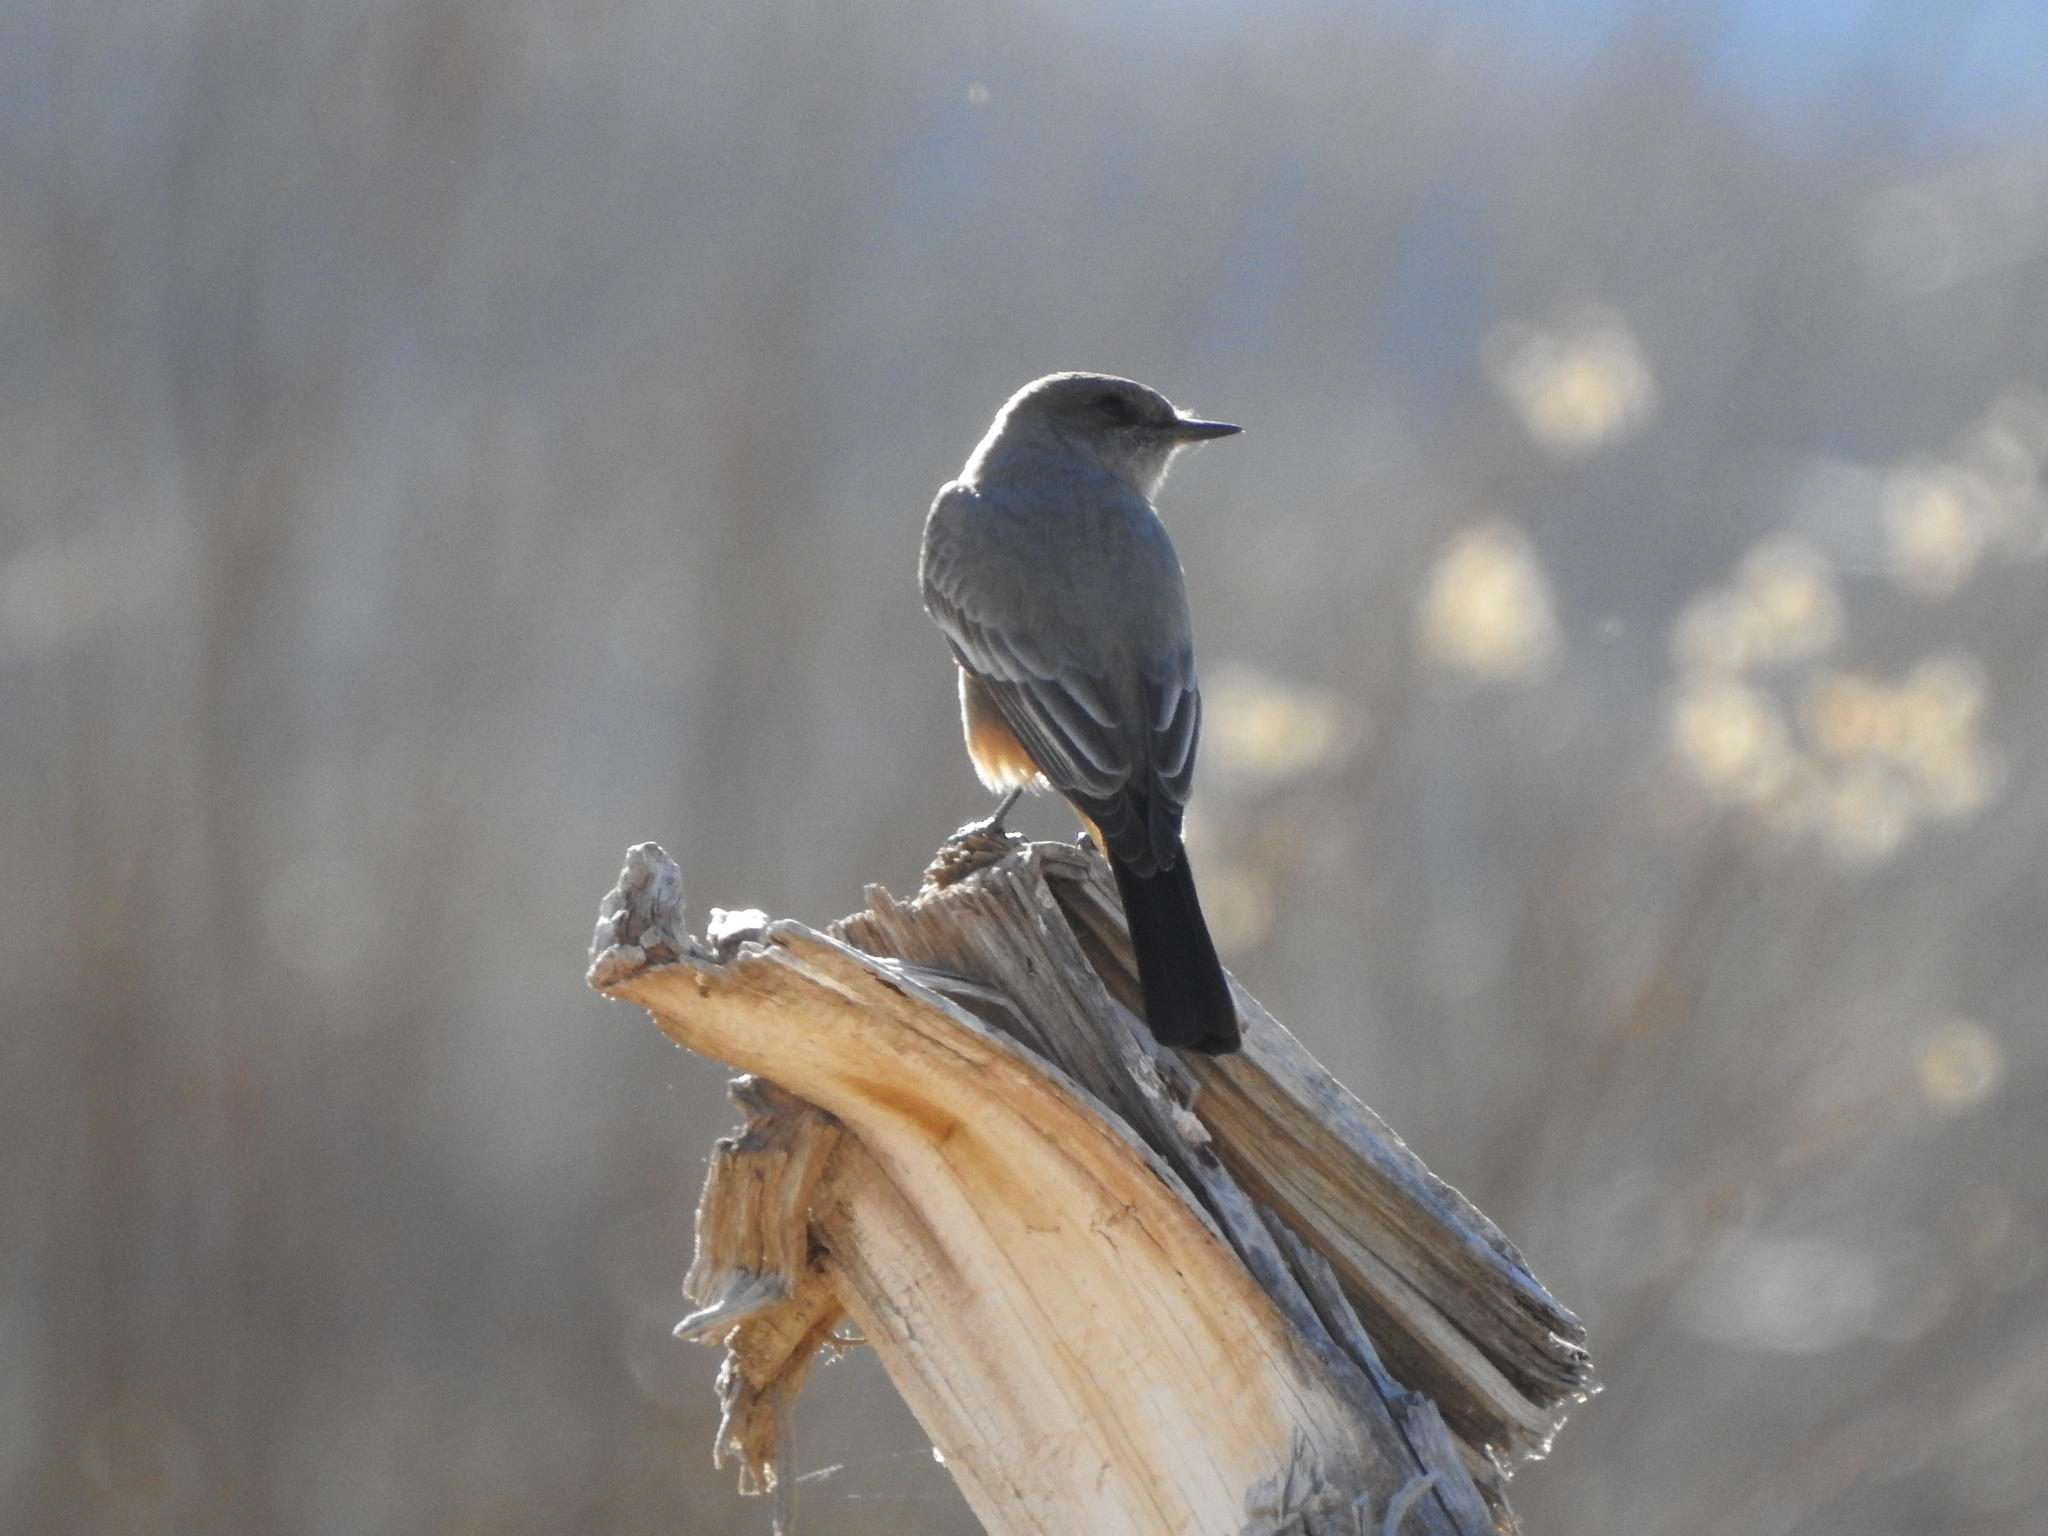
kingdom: Animalia
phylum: Chordata
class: Aves
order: Passeriformes
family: Tyrannidae
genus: Sayornis
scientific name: Sayornis saya
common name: Say's phoebe
